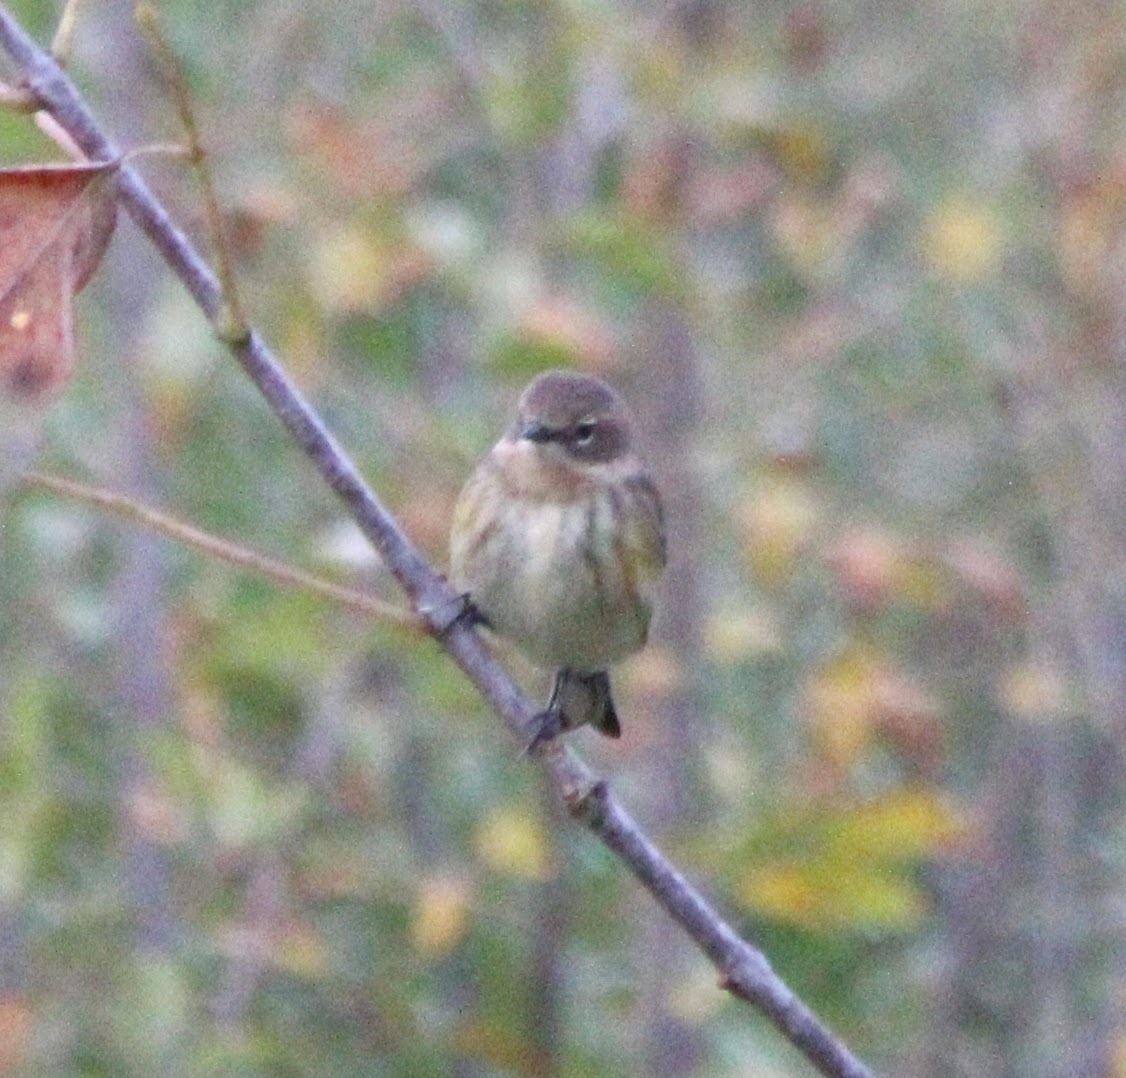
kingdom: Animalia
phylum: Chordata
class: Aves
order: Passeriformes
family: Parulidae
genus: Setophaga
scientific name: Setophaga coronata
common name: Myrtle warbler
